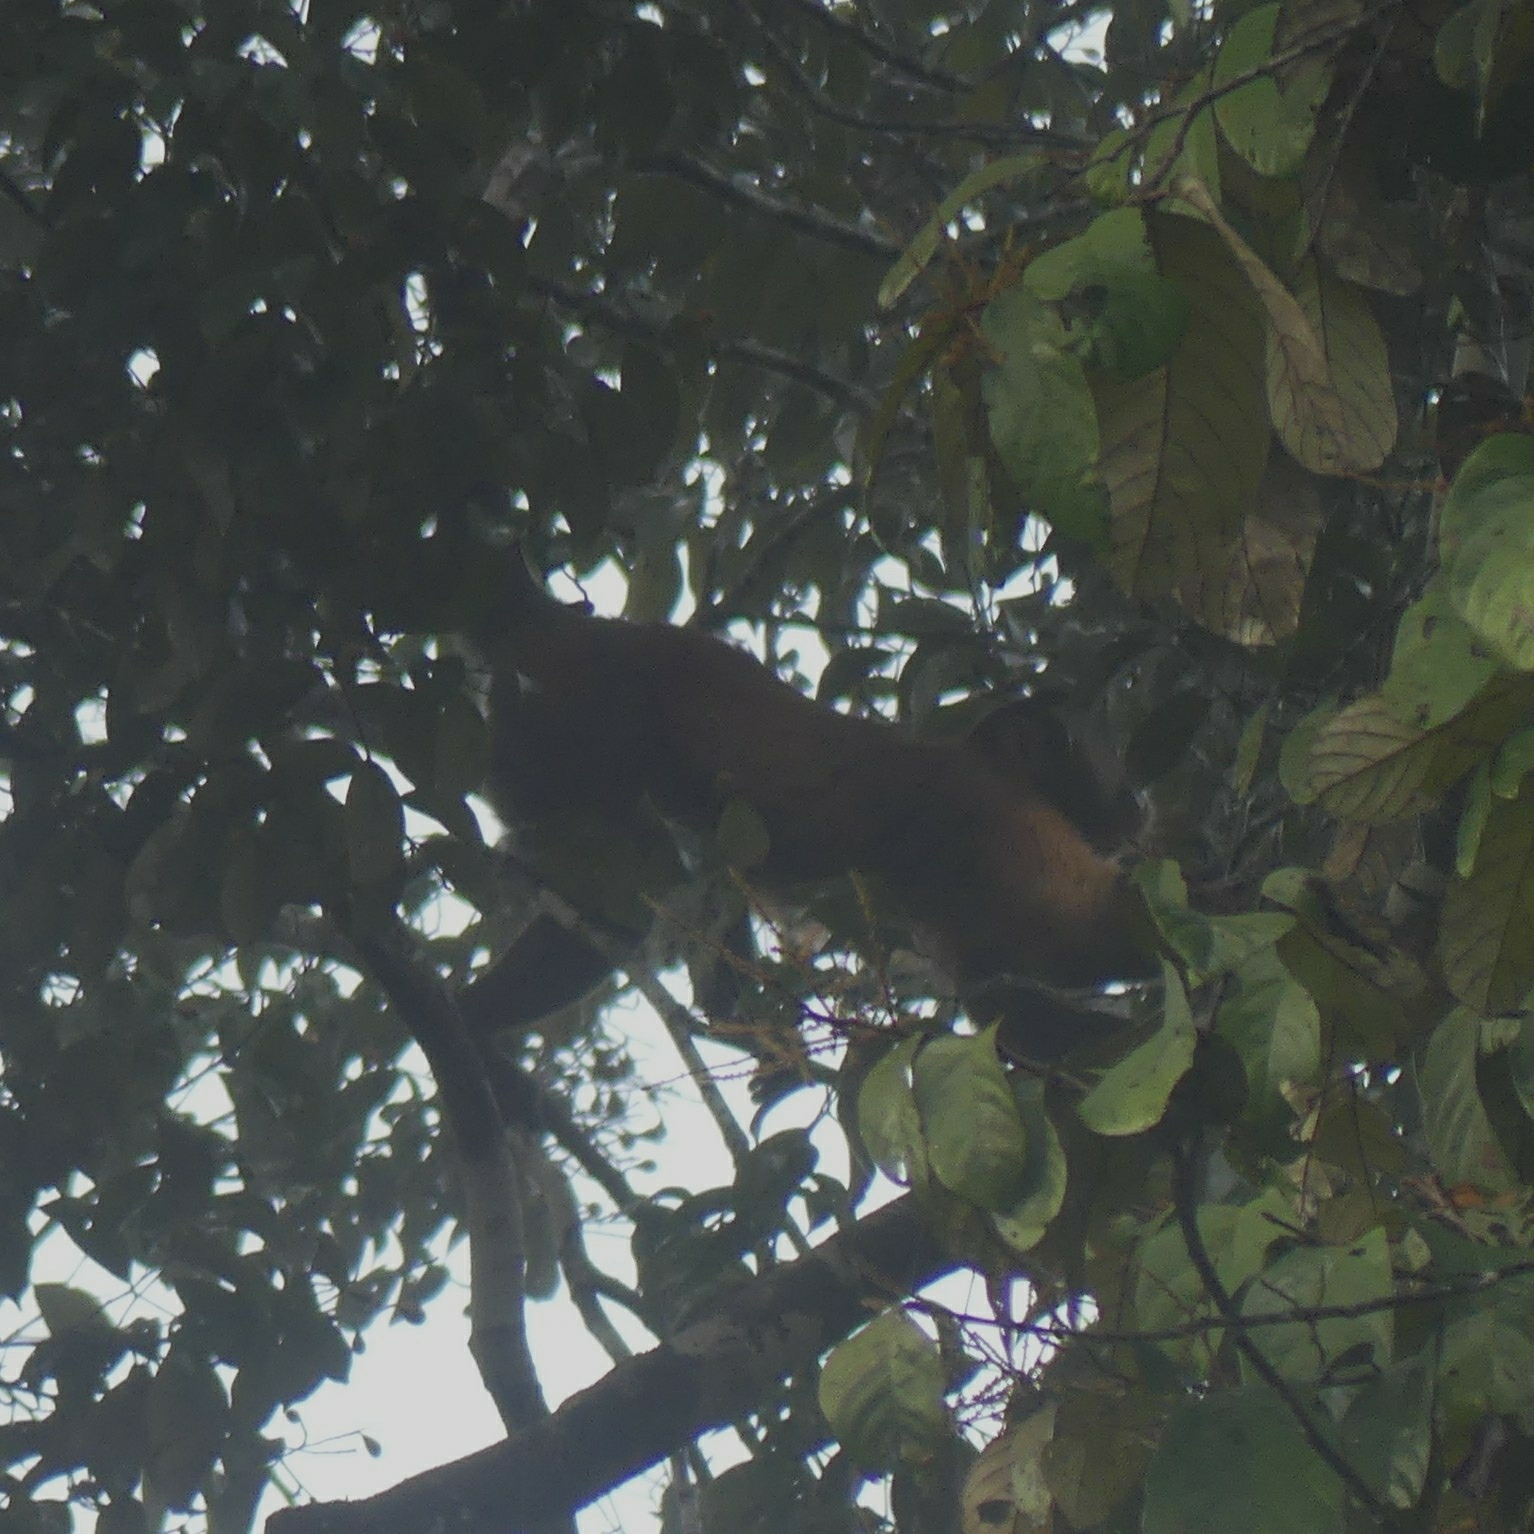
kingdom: Animalia
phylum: Chordata
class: Mammalia
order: Primates
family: Cebidae
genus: Sapajus
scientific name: Sapajus apella
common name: Tufted capuchin
